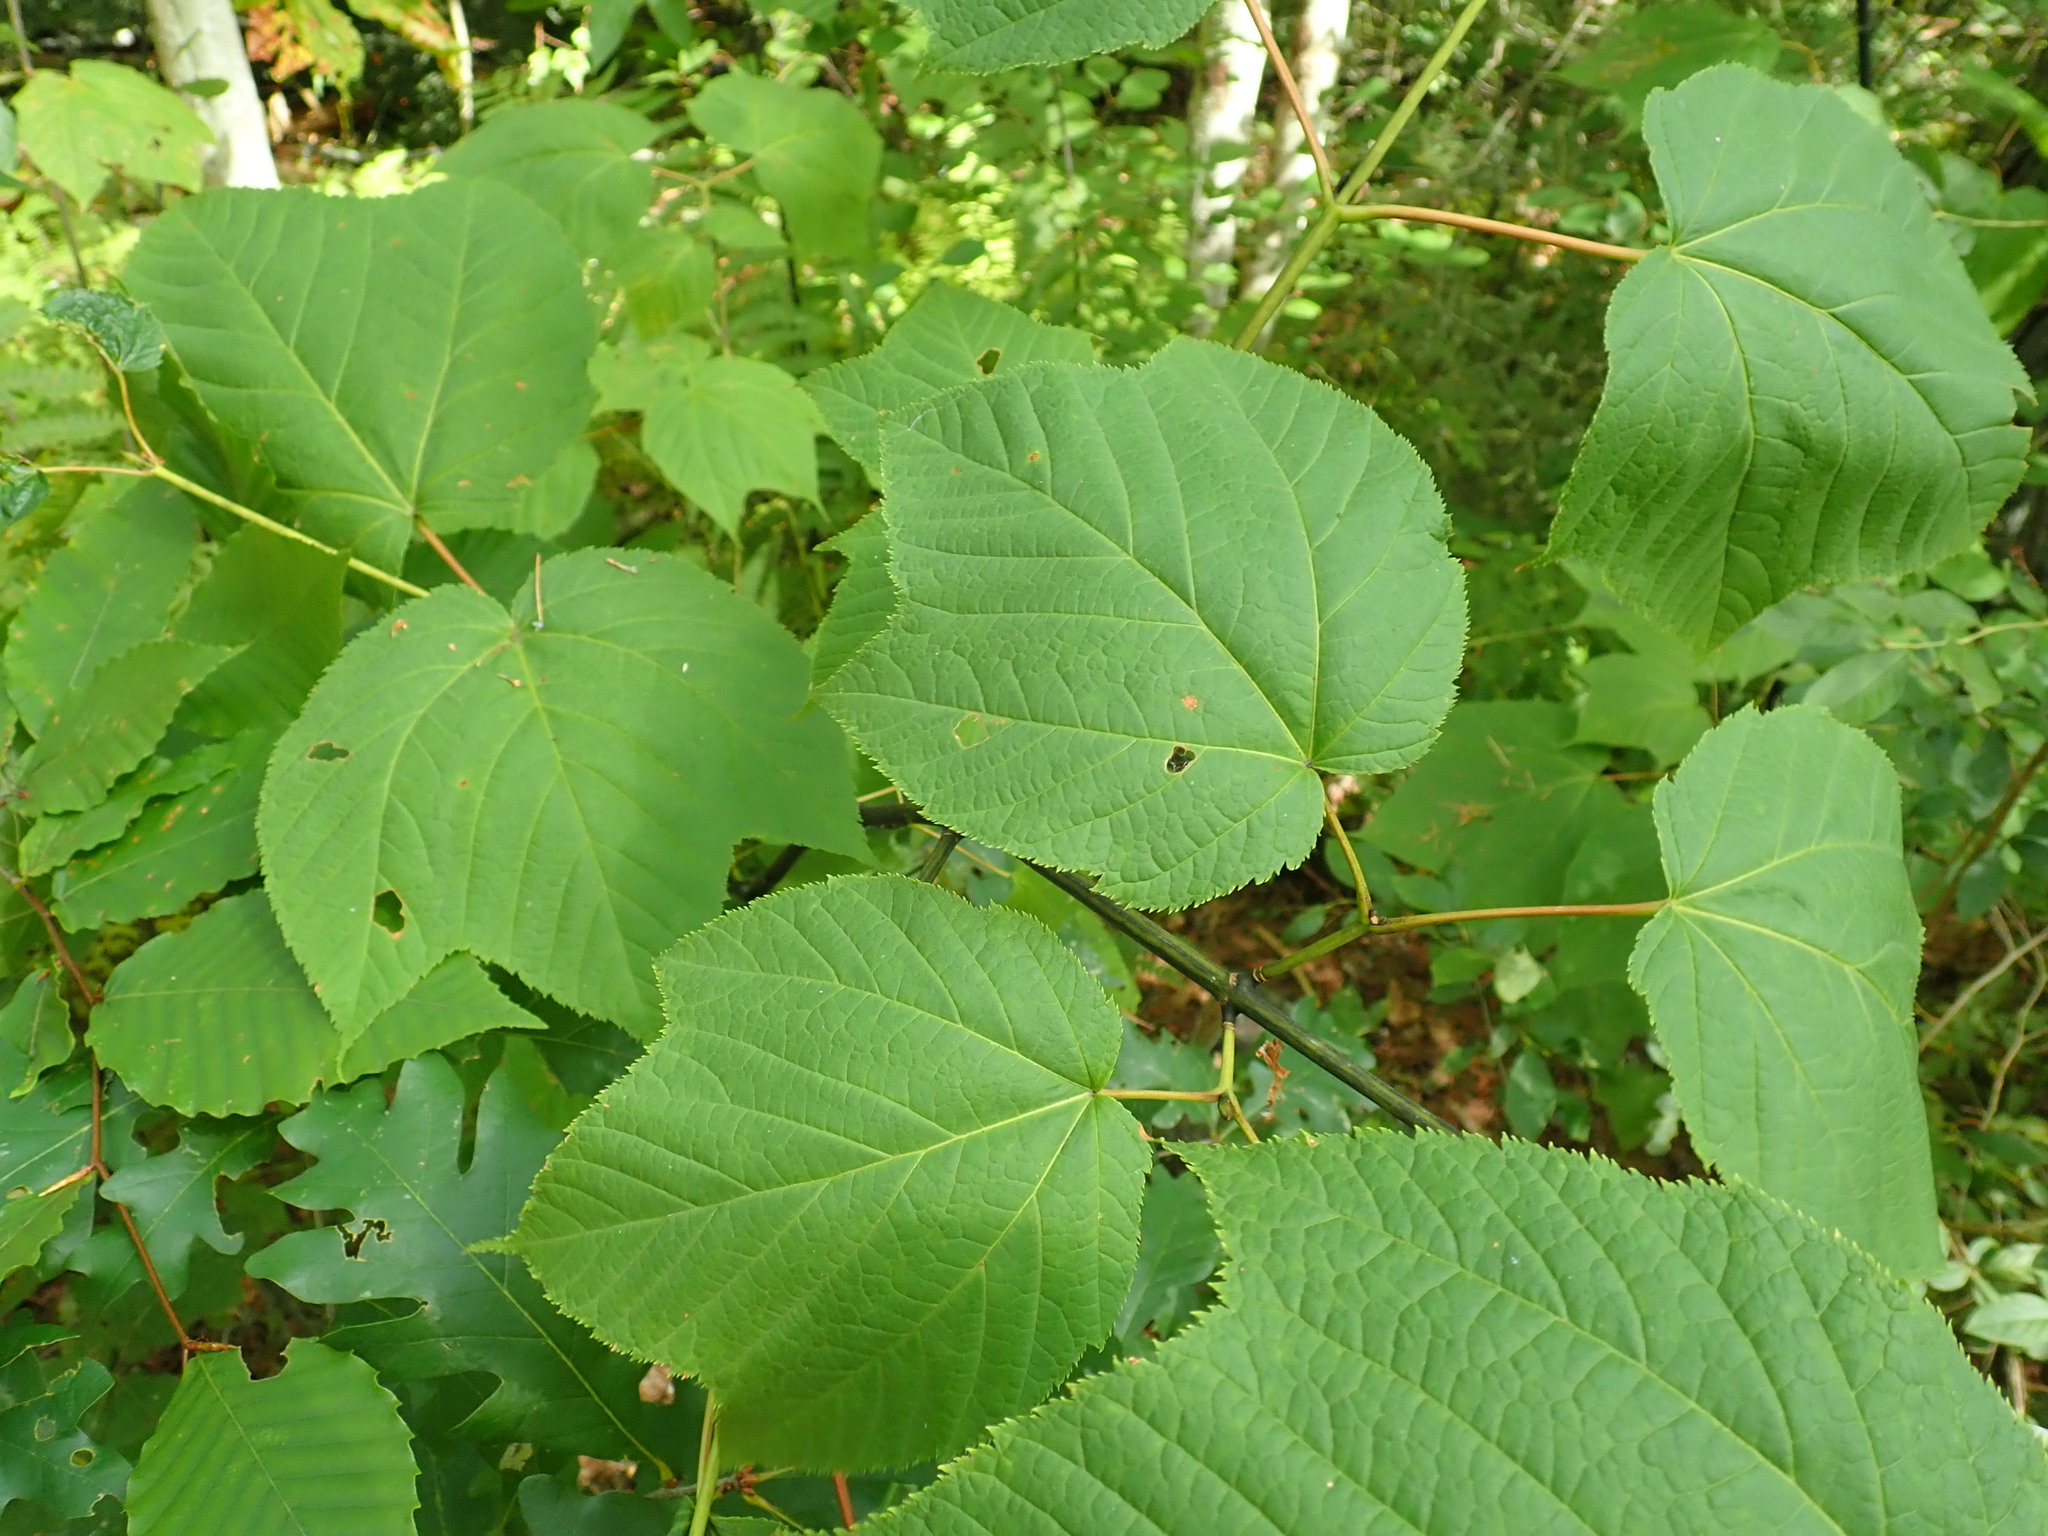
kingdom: Plantae
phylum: Tracheophyta
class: Magnoliopsida
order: Sapindales
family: Sapindaceae
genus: Acer
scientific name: Acer pensylvanicum
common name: Moosewood
